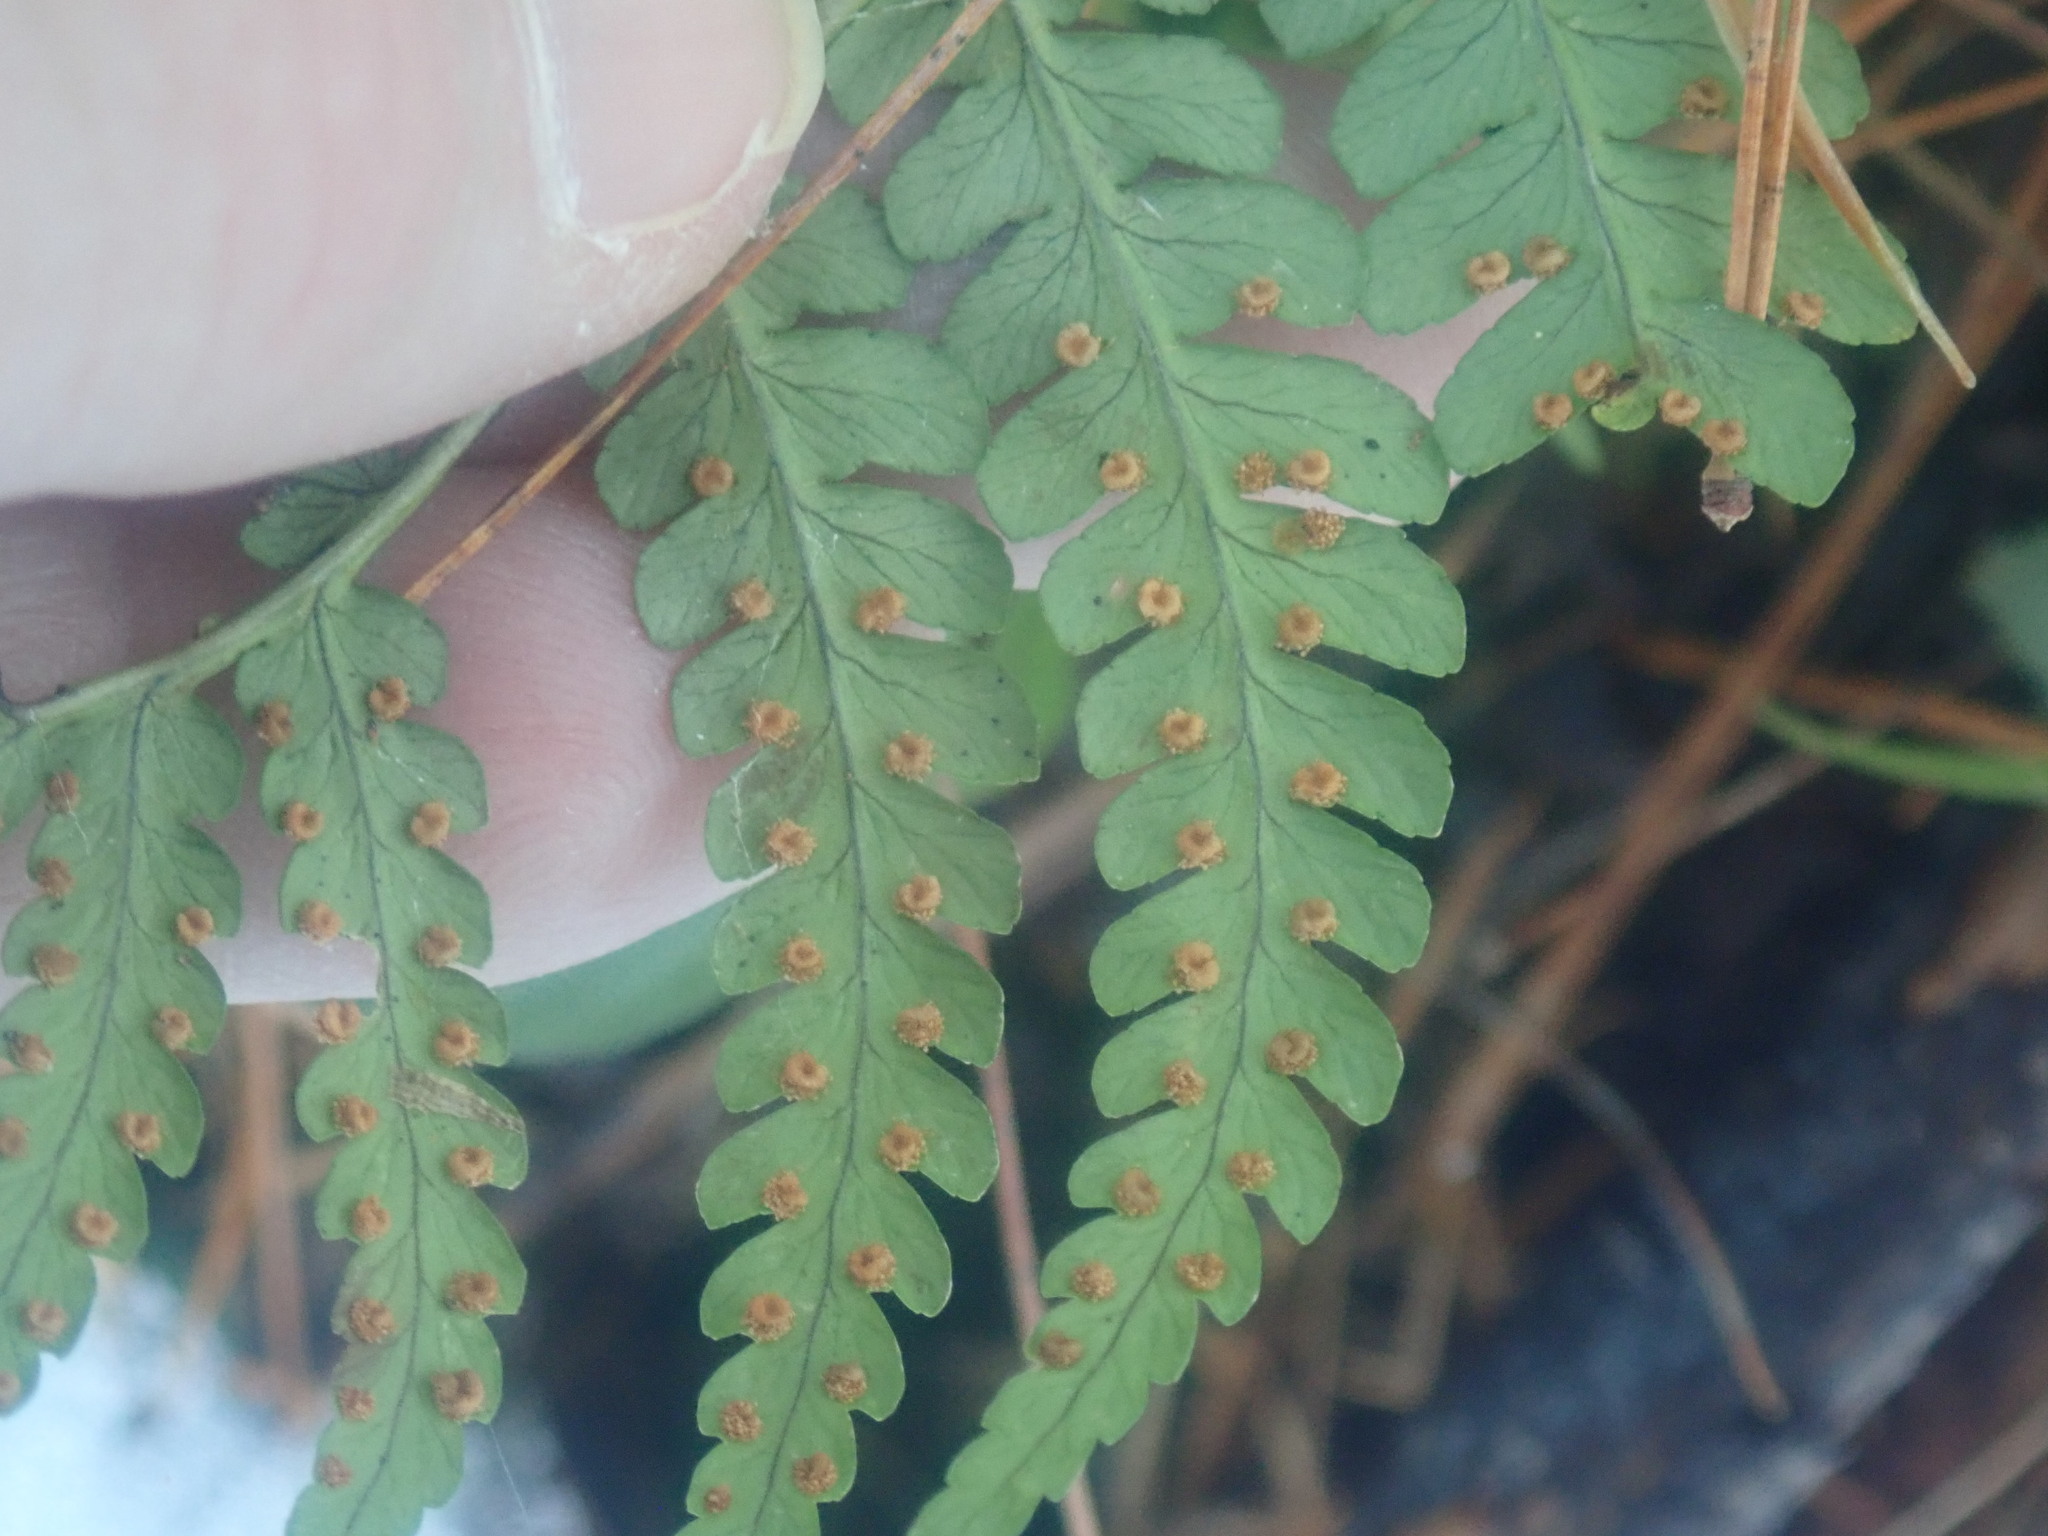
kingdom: Plantae
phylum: Tracheophyta
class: Polypodiopsida
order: Polypodiales
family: Dryopteridaceae
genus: Dryopteris
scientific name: Dryopteris marginalis
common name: Marginal wood fern
